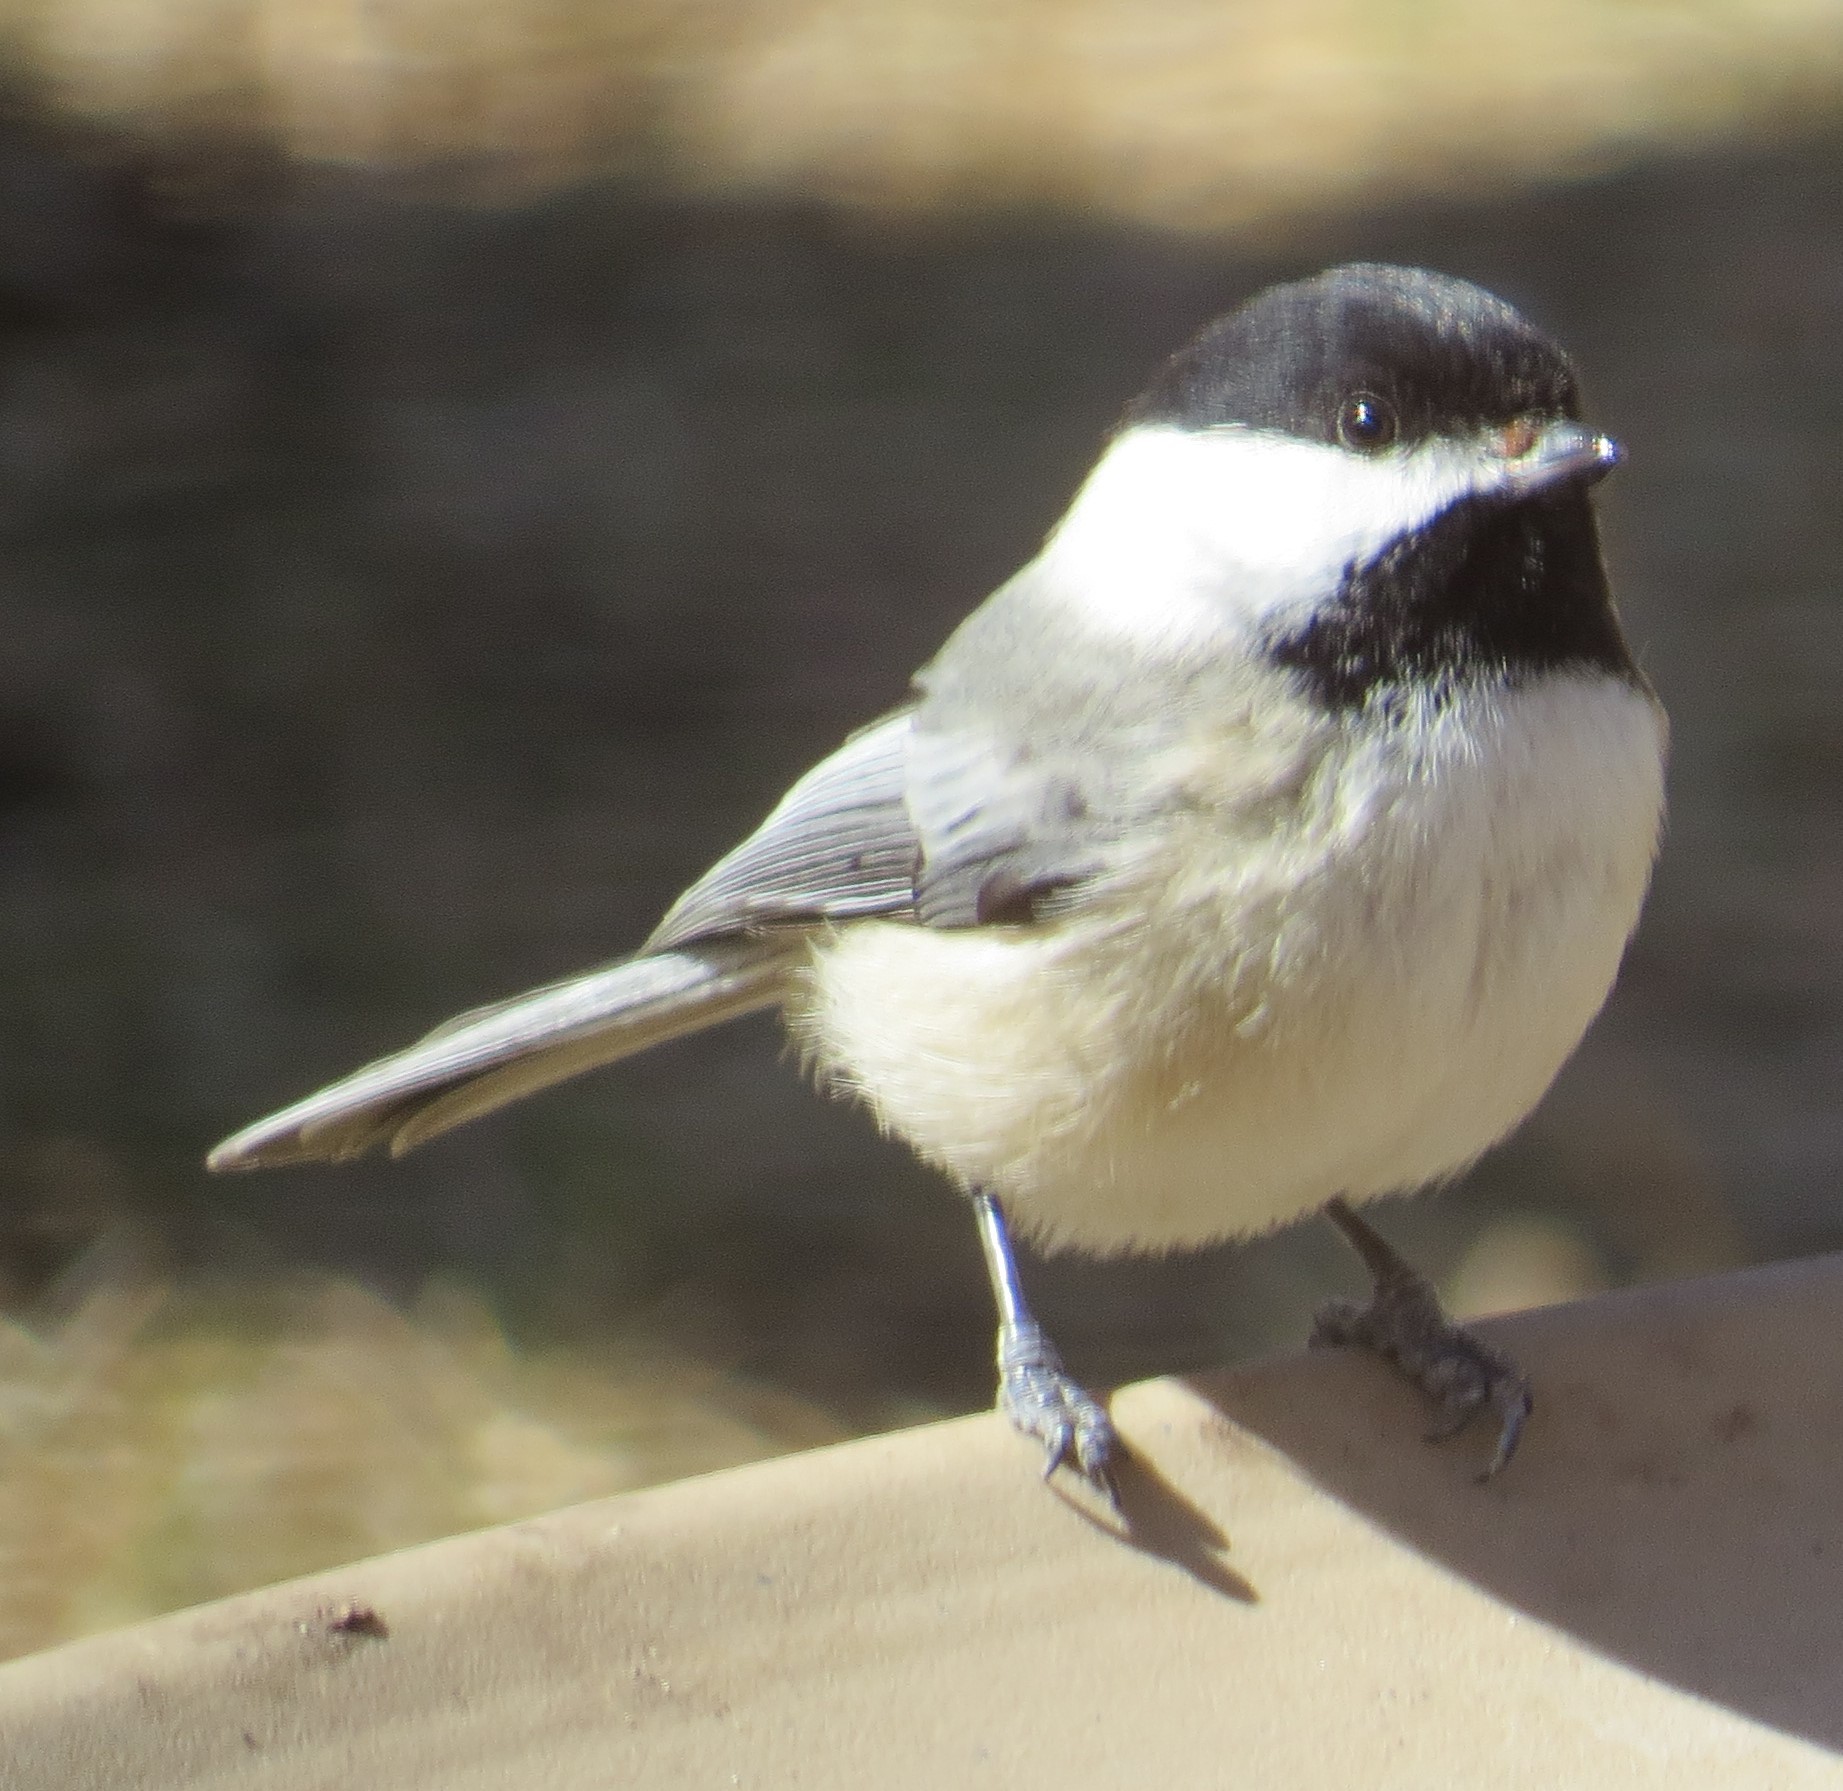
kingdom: Animalia
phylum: Chordata
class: Aves
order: Passeriformes
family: Paridae
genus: Poecile
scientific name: Poecile atricapillus
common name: Black-capped chickadee
